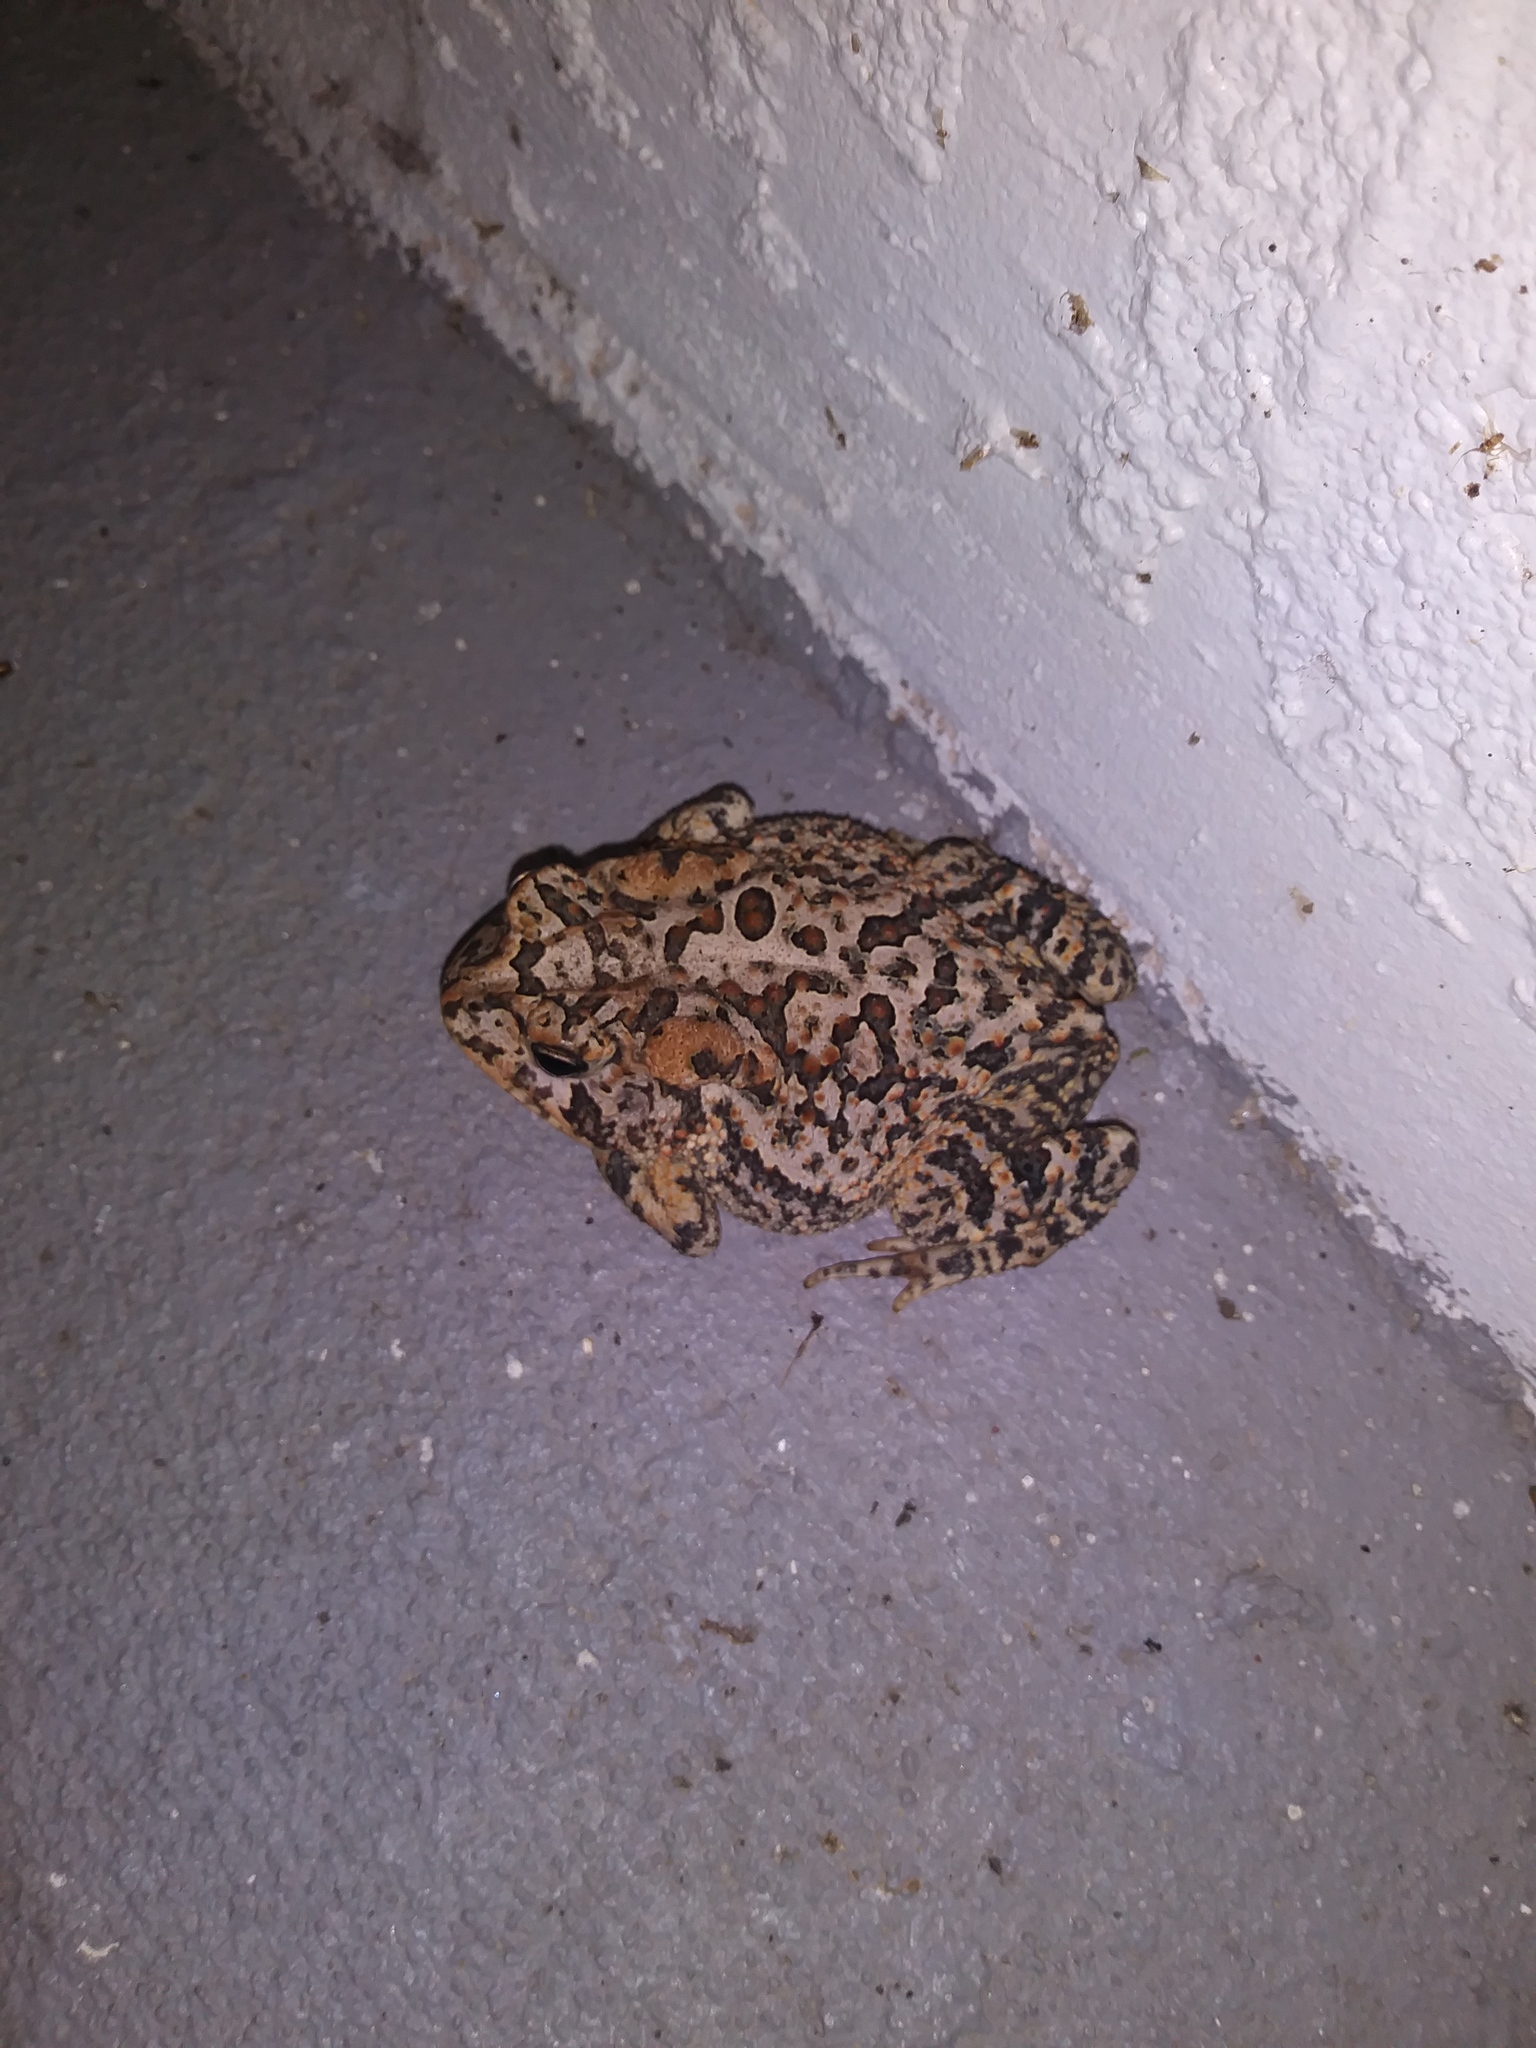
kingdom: Animalia
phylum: Chordata
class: Amphibia
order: Anura
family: Bufonidae
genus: Anaxyrus
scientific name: Anaxyrus terrestris
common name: Southern toad
